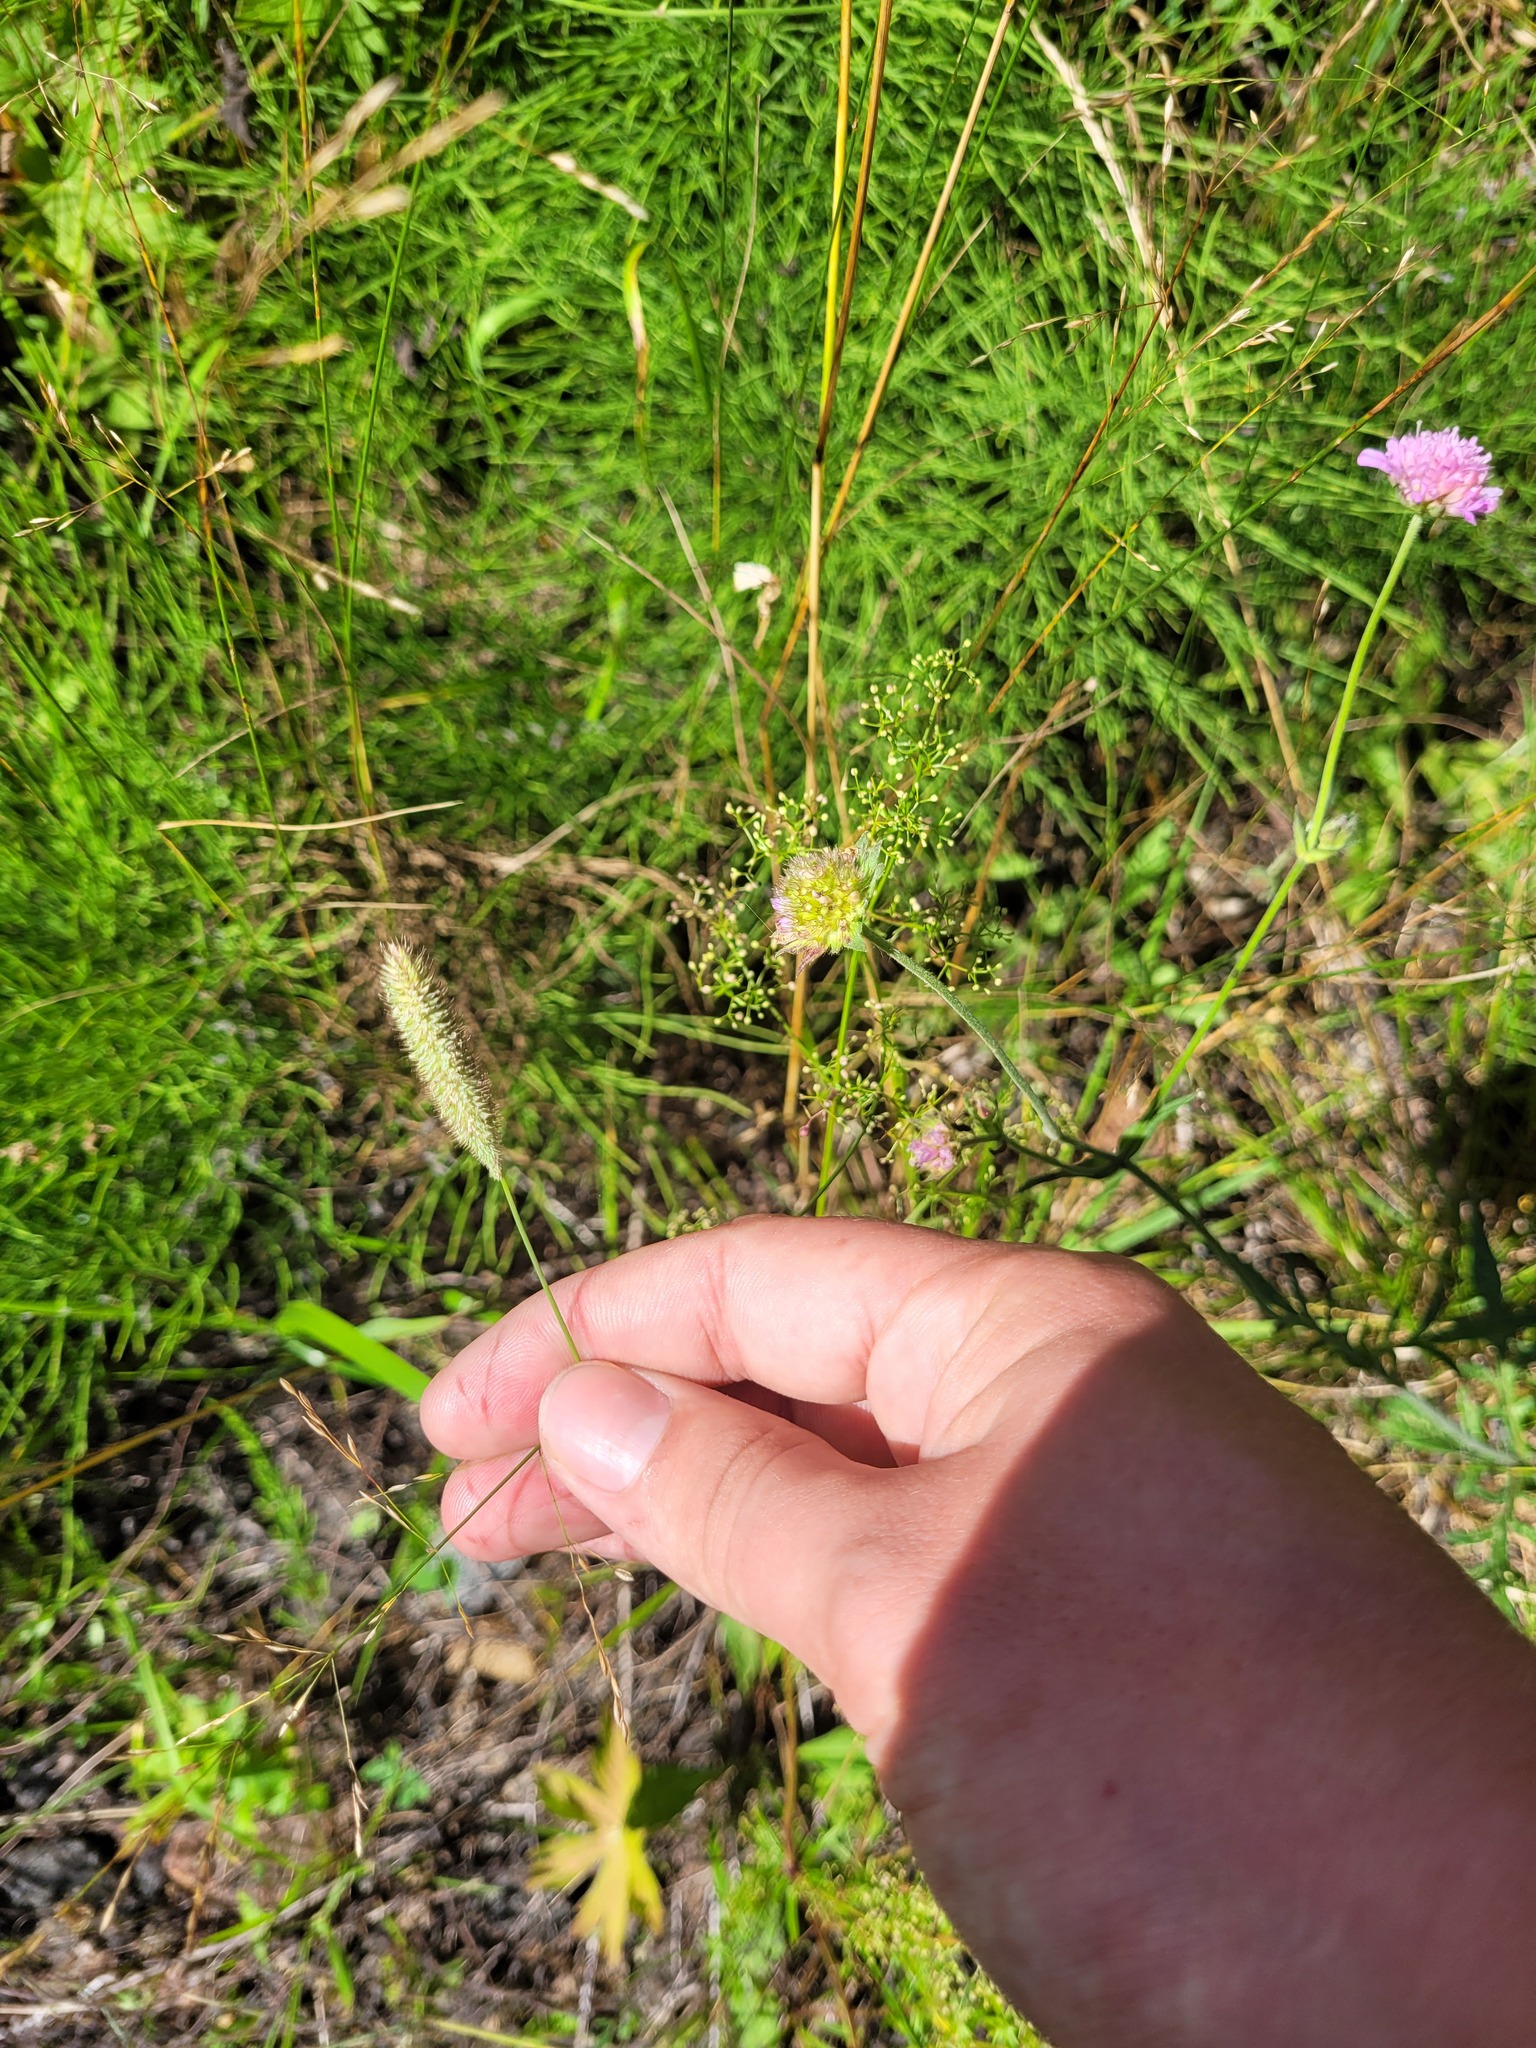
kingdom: Plantae
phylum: Tracheophyta
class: Liliopsida
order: Poales
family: Poaceae
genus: Phleum
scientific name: Phleum pratense
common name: Timothy grass
